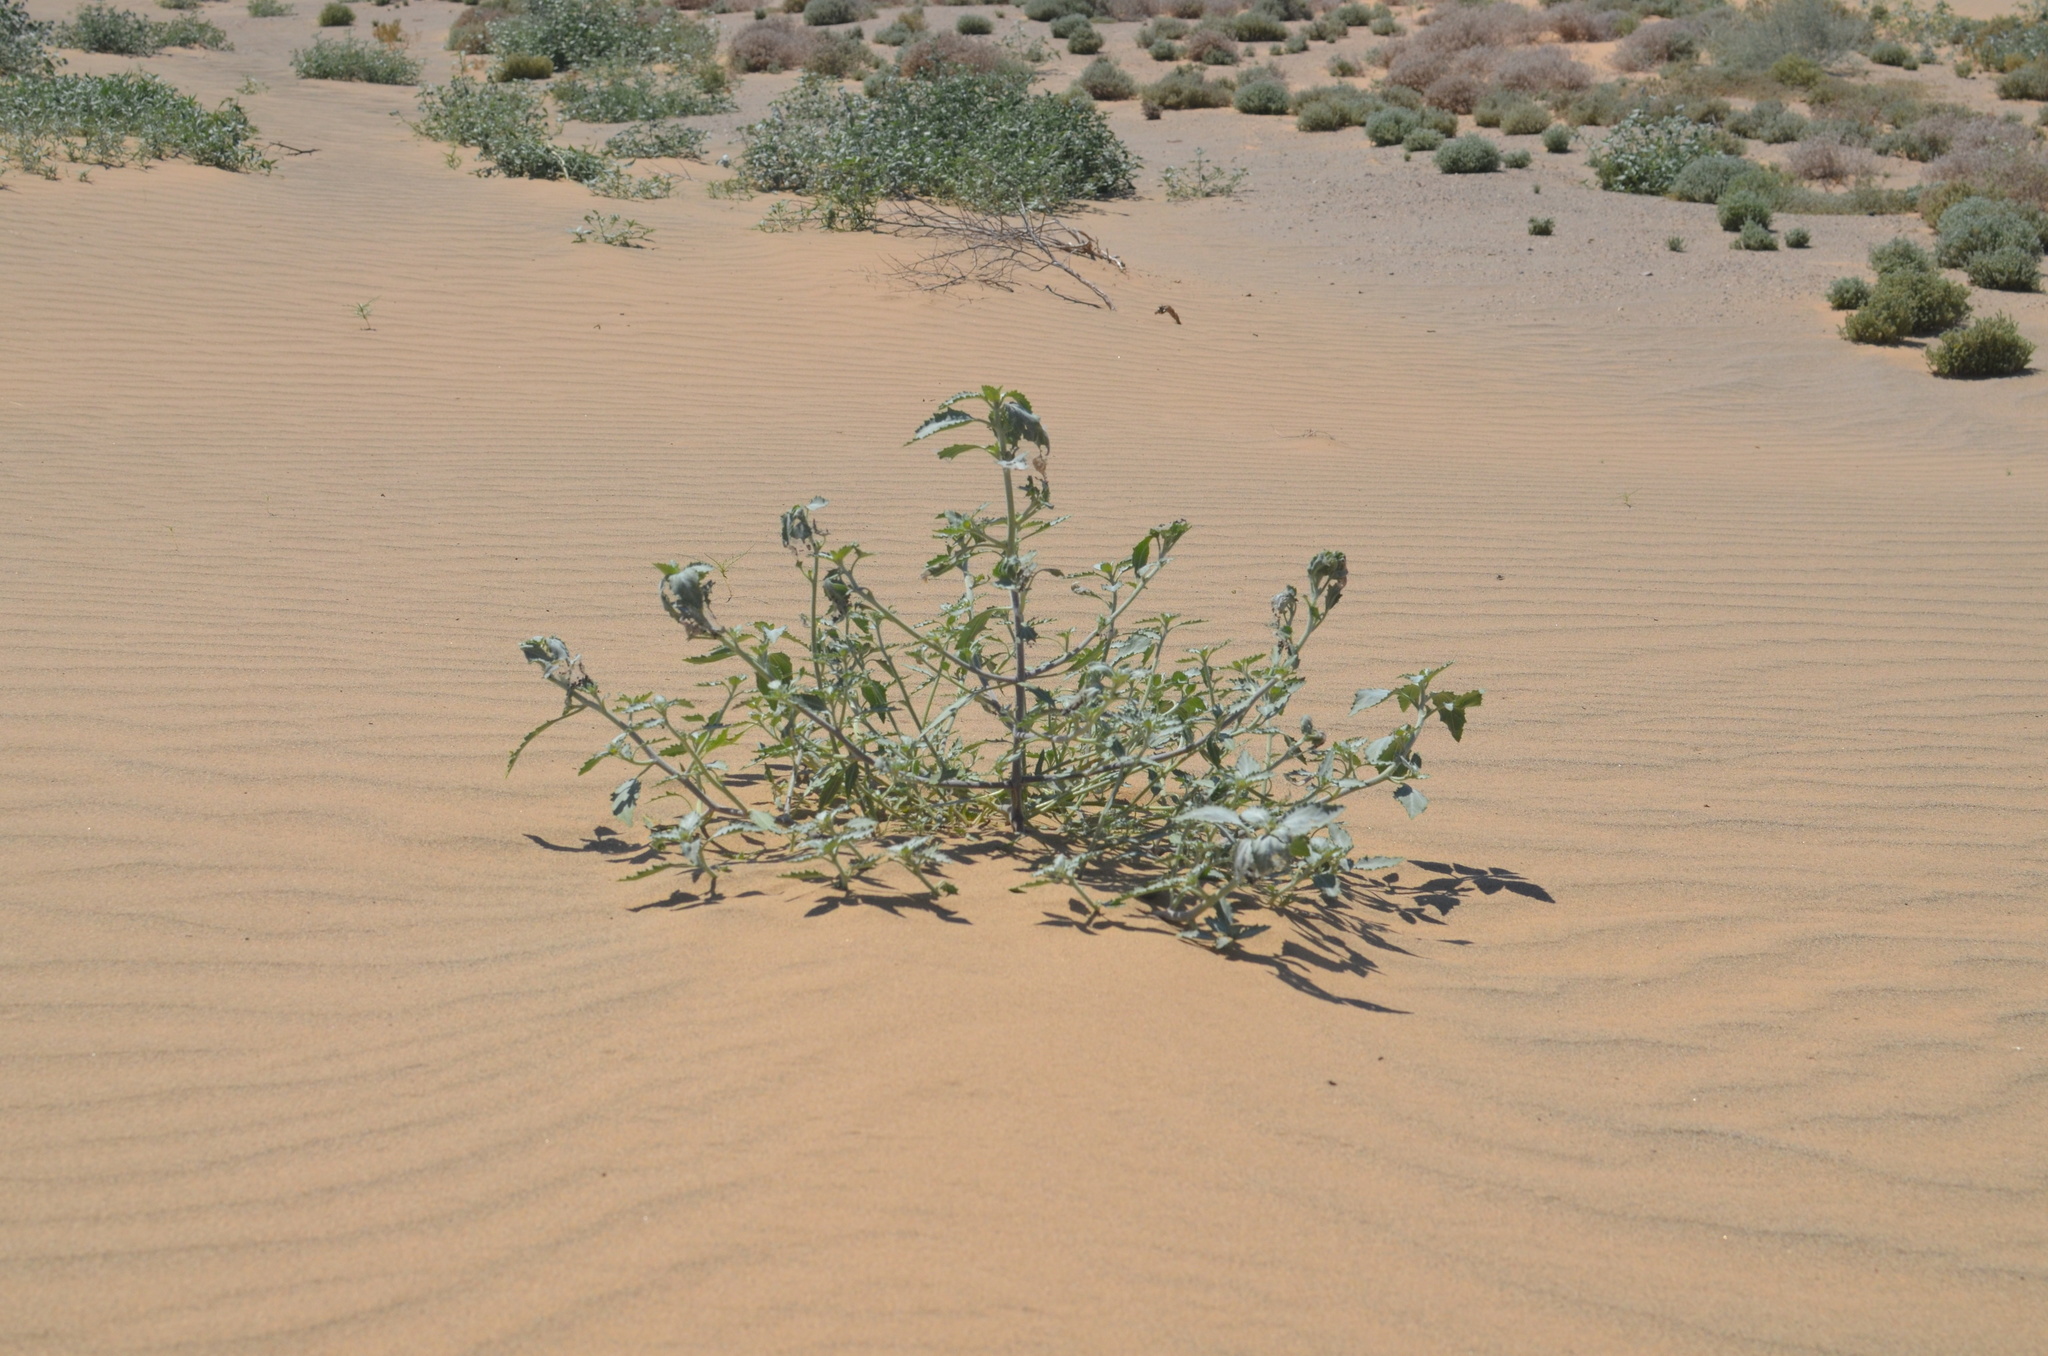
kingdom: Plantae
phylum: Tracheophyta
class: Magnoliopsida
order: Asterales
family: Asteraceae
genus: Dicoria
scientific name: Dicoria canescens
